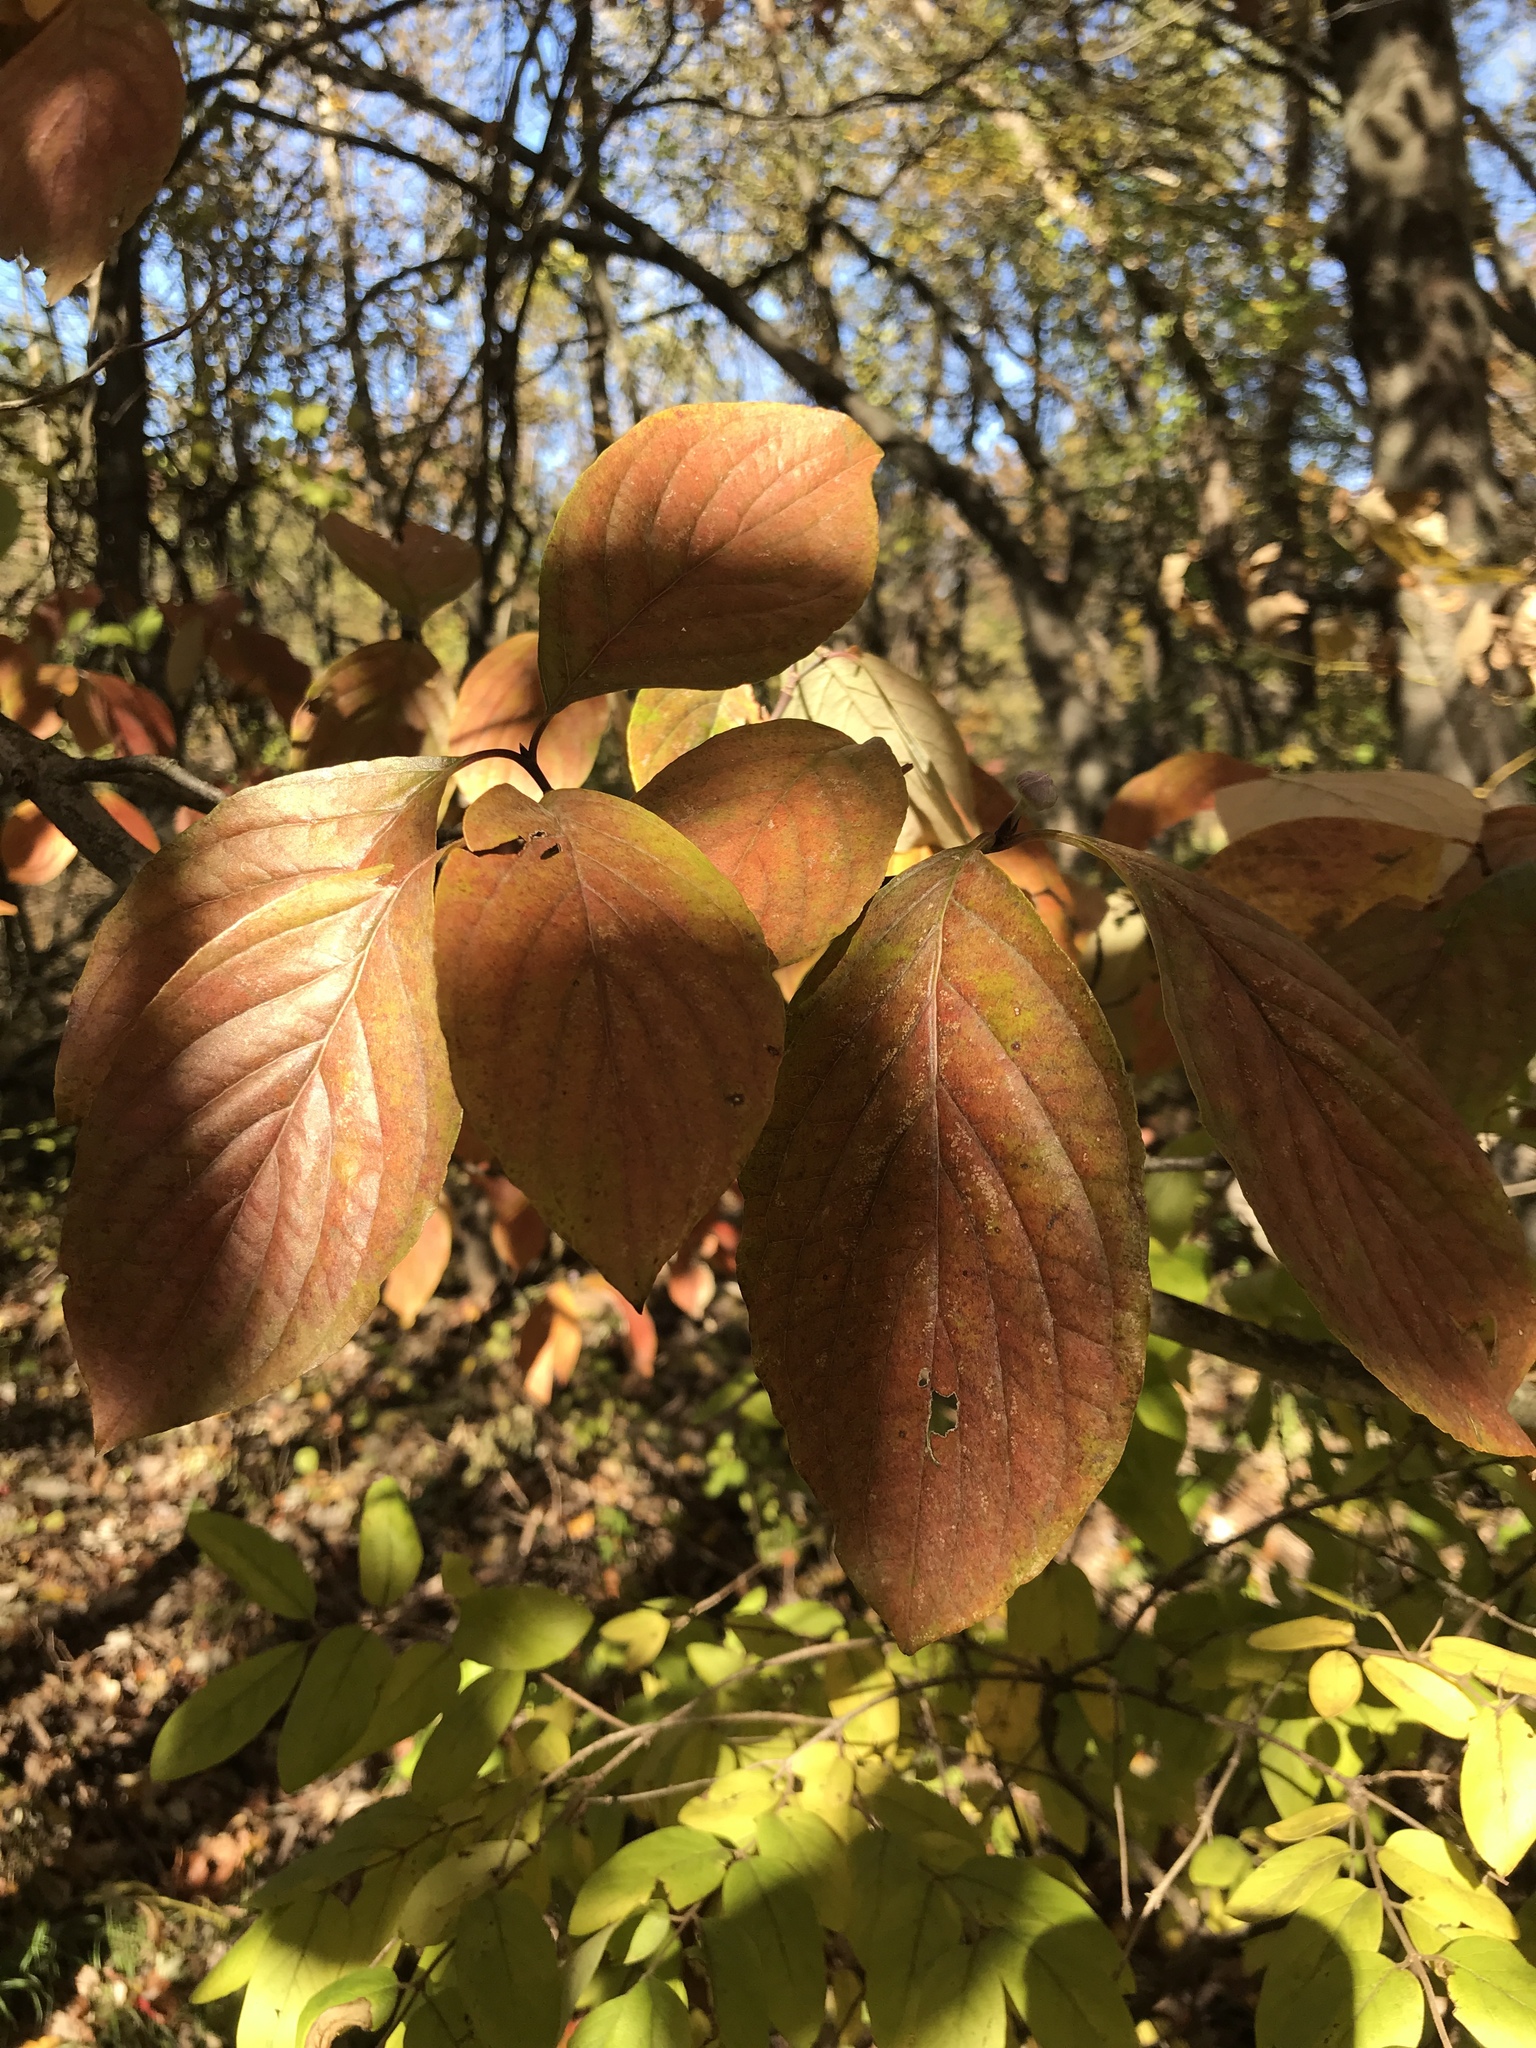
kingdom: Plantae
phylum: Tracheophyta
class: Magnoliopsida
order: Cornales
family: Cornaceae
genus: Cornus
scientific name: Cornus florida
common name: Flowering dogwood
